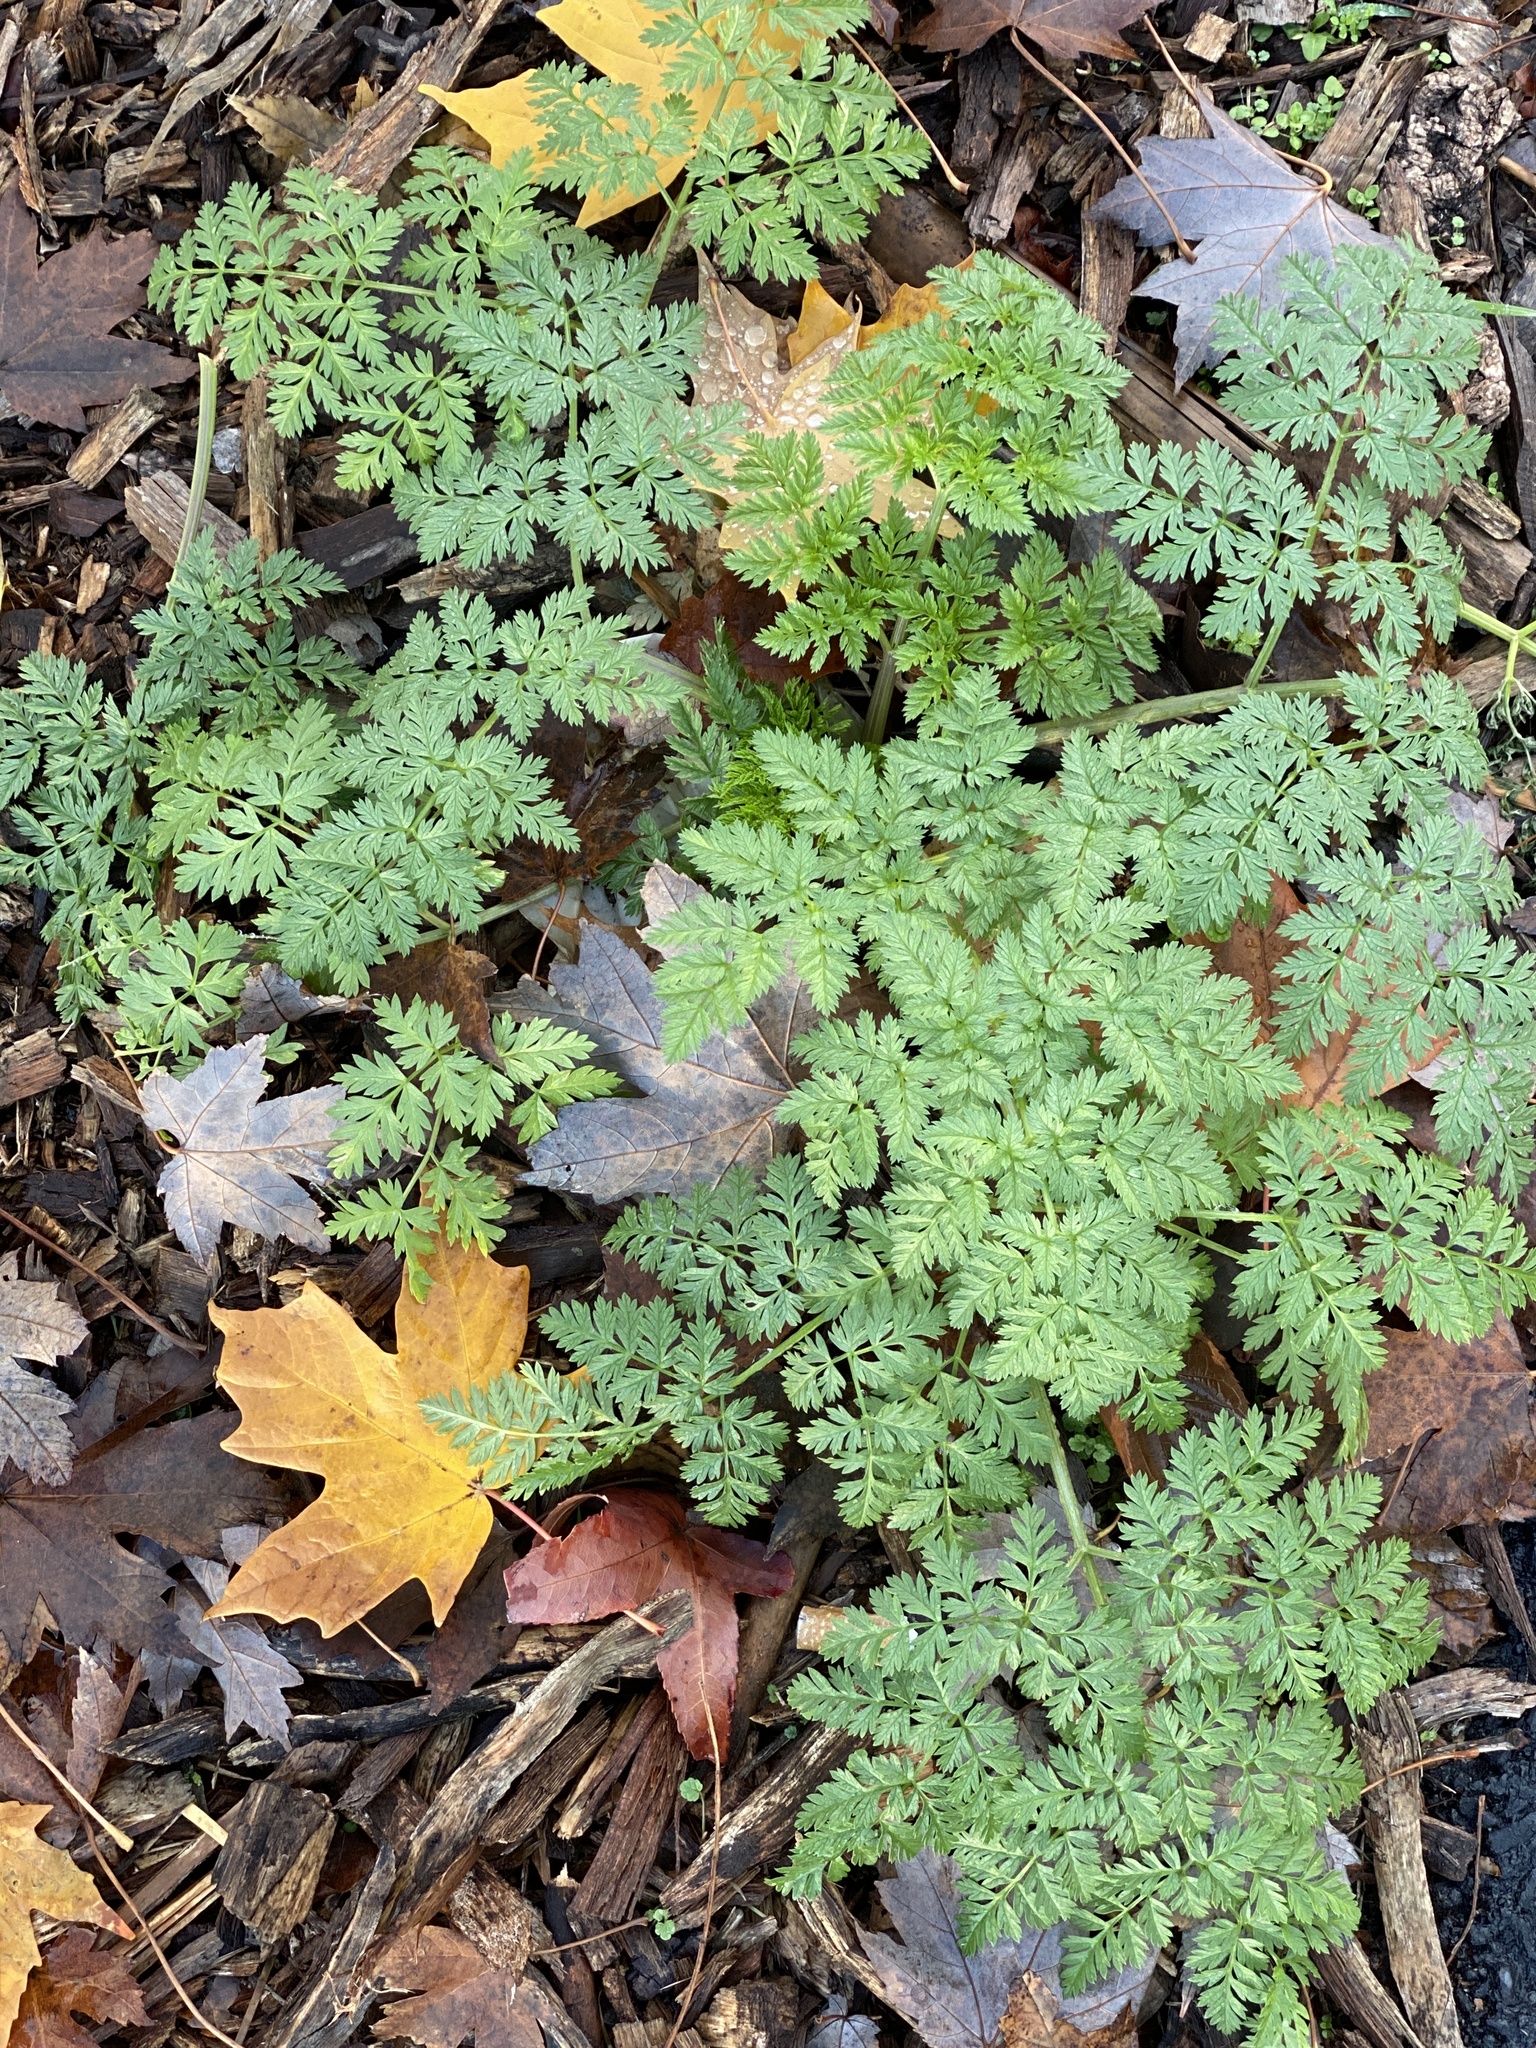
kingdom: Plantae
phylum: Tracheophyta
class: Magnoliopsida
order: Apiales
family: Apiaceae
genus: Conium
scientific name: Conium maculatum
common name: Hemlock
